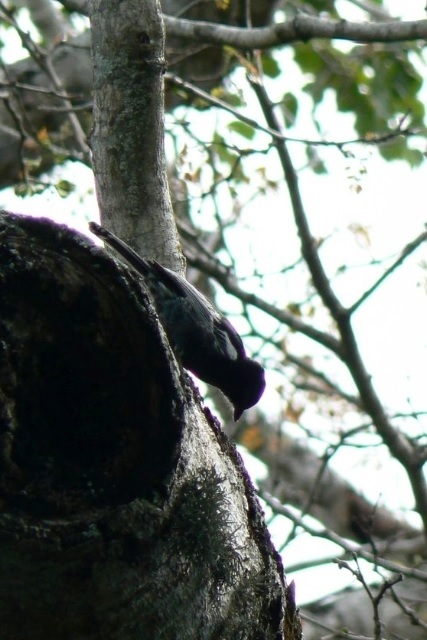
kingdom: Animalia
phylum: Chordata
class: Aves
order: Passeriformes
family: Paridae
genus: Parus
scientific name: Parus niger
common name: Southern black tit
